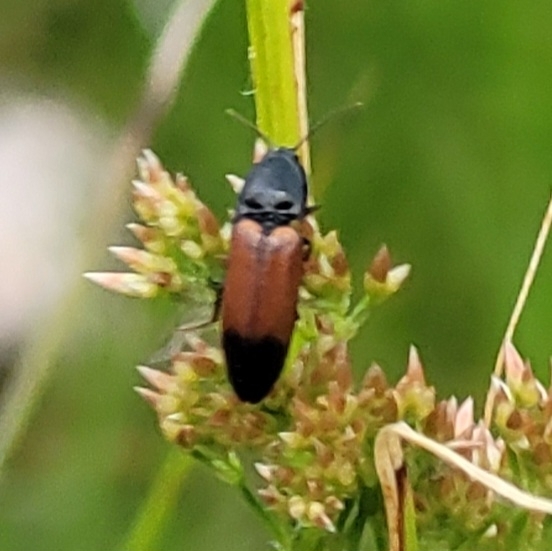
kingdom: Animalia
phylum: Arthropoda
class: Insecta
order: Coleoptera
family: Elateridae
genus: Ampedus
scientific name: Ampedus balteatus
